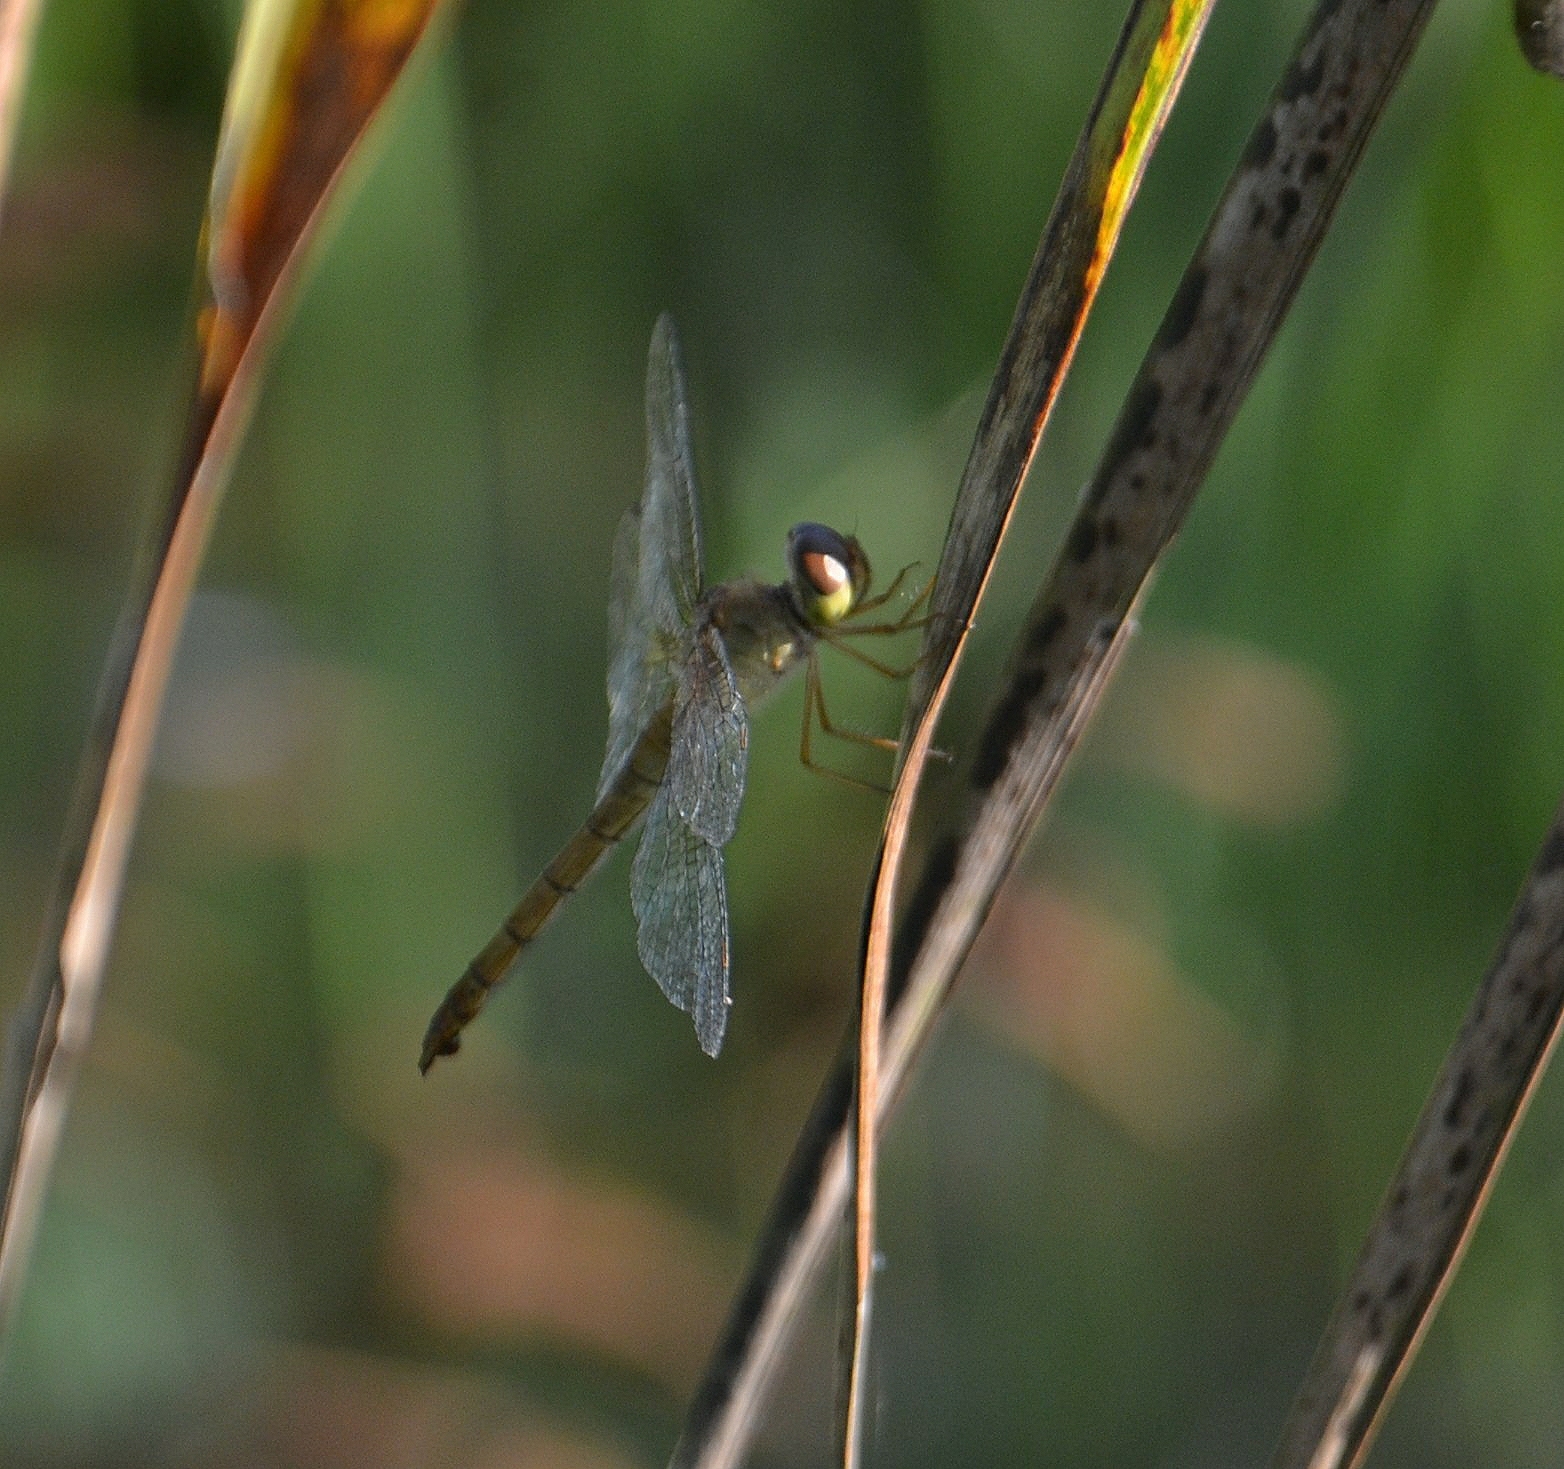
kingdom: Animalia
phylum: Arthropoda
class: Insecta
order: Odonata
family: Libellulidae
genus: Tholymis
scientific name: Tholymis tillarga
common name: Coral-tailed cloud wing
